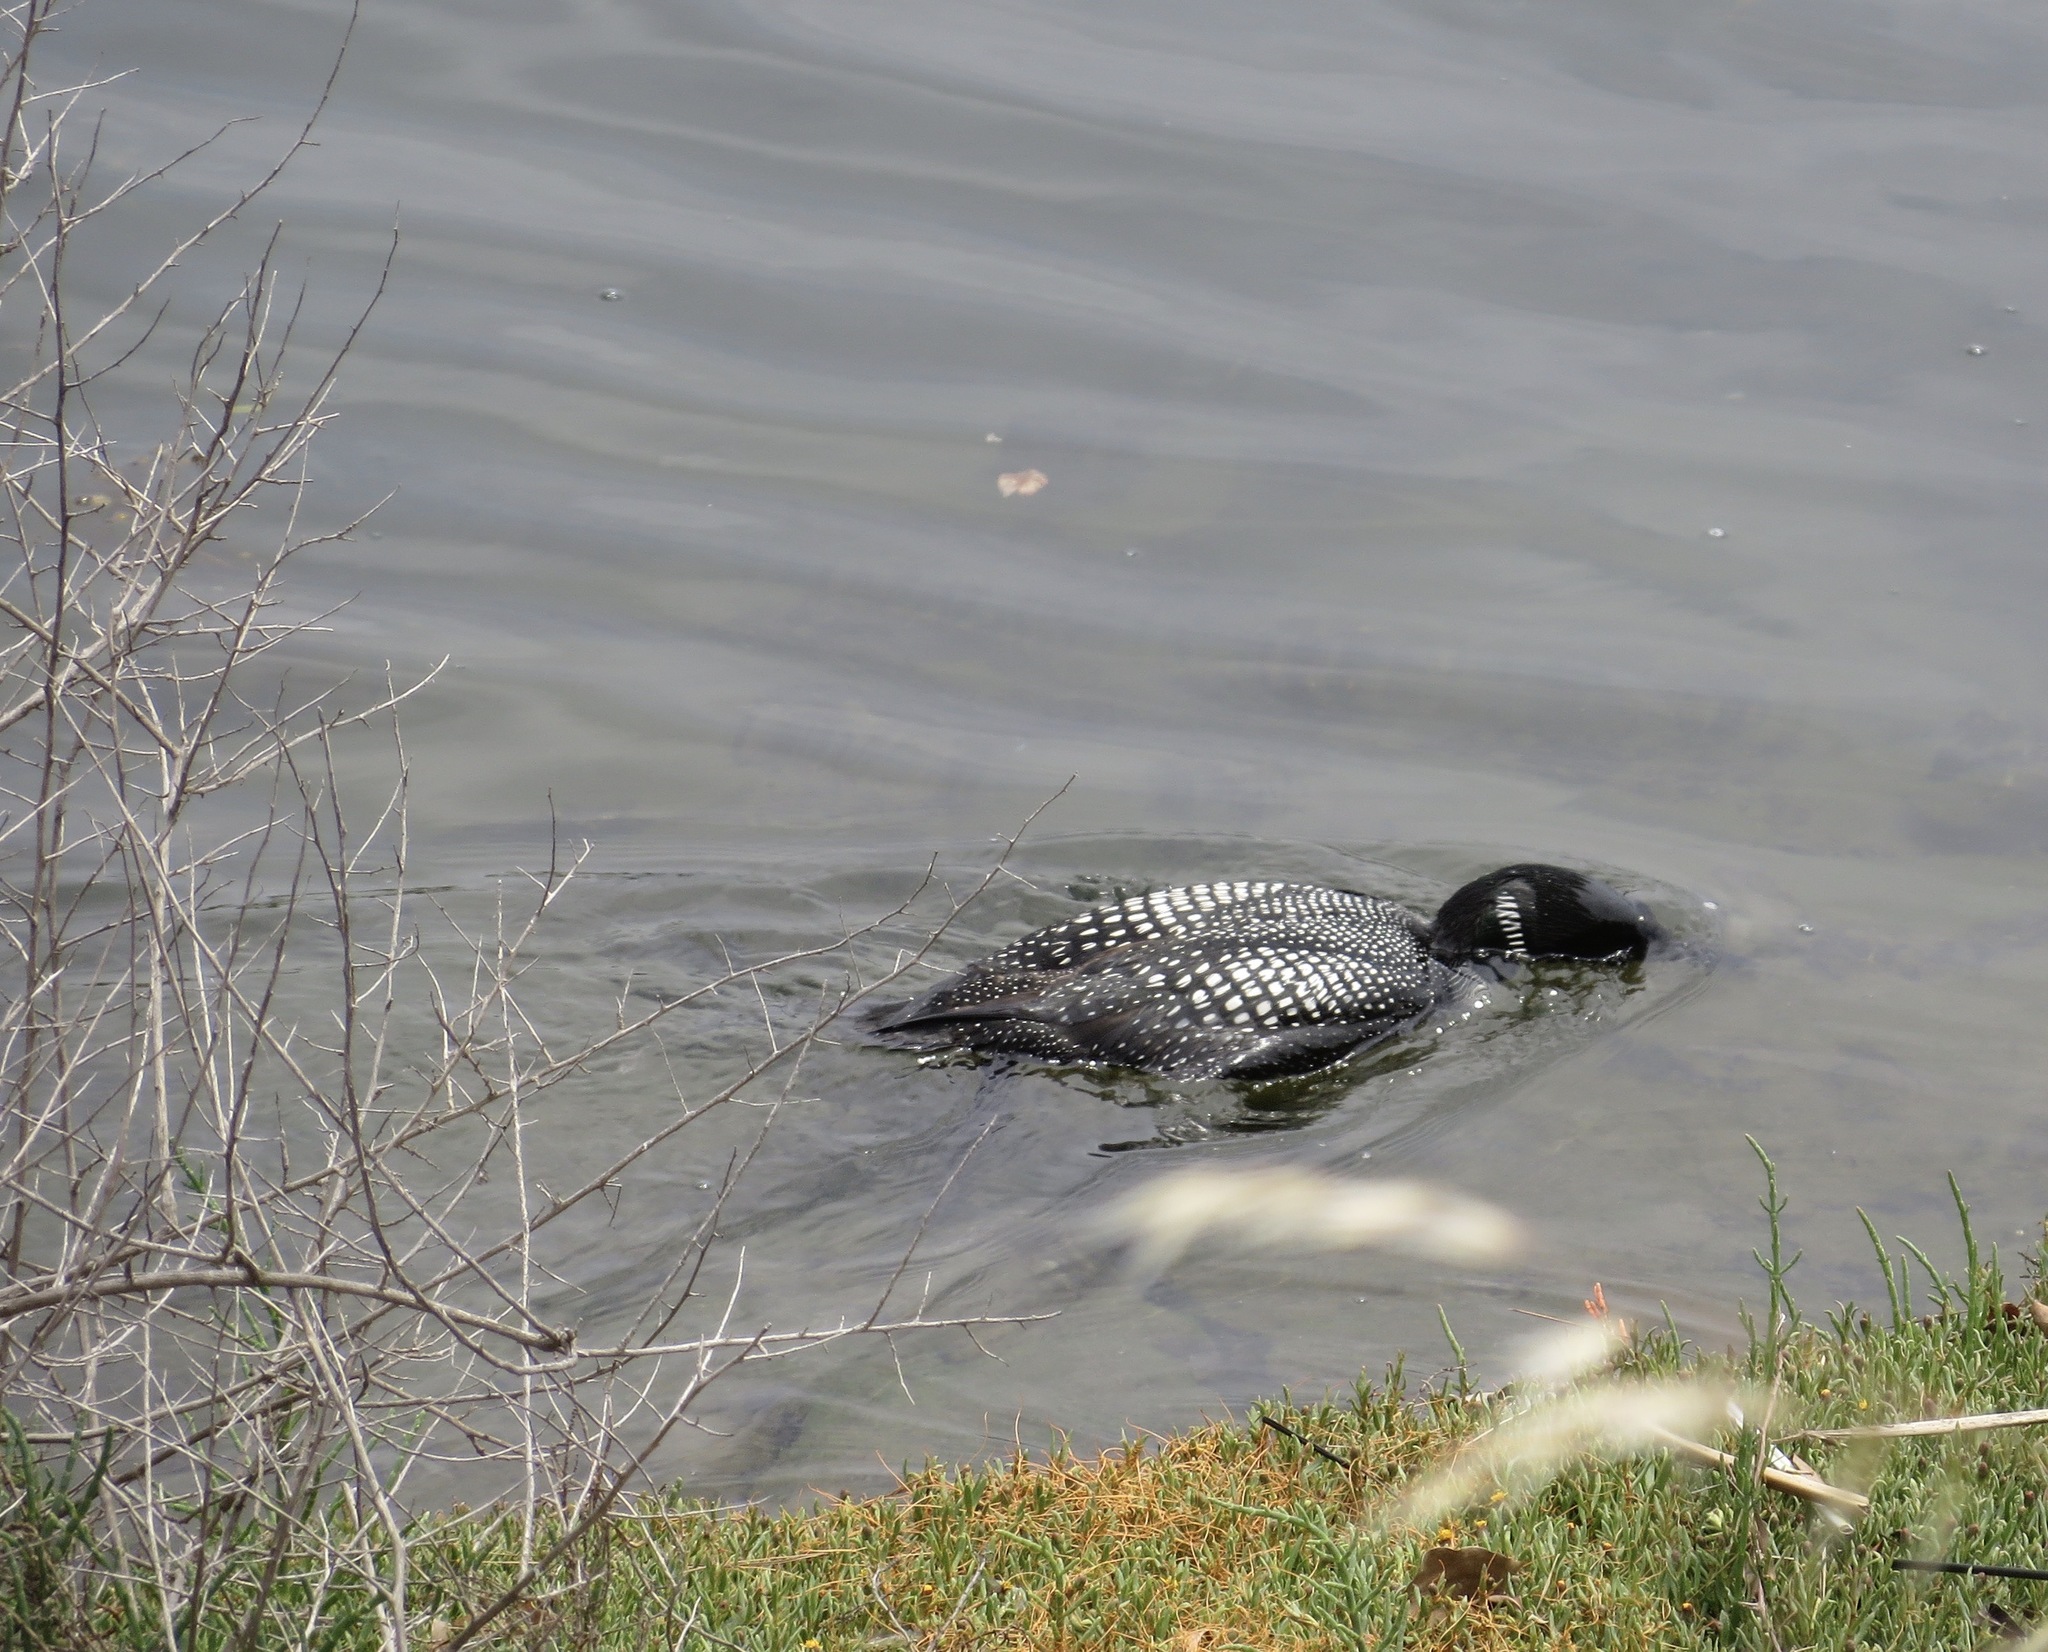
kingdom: Animalia
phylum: Chordata
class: Aves
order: Gaviiformes
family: Gaviidae
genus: Gavia
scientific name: Gavia immer
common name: Common loon
